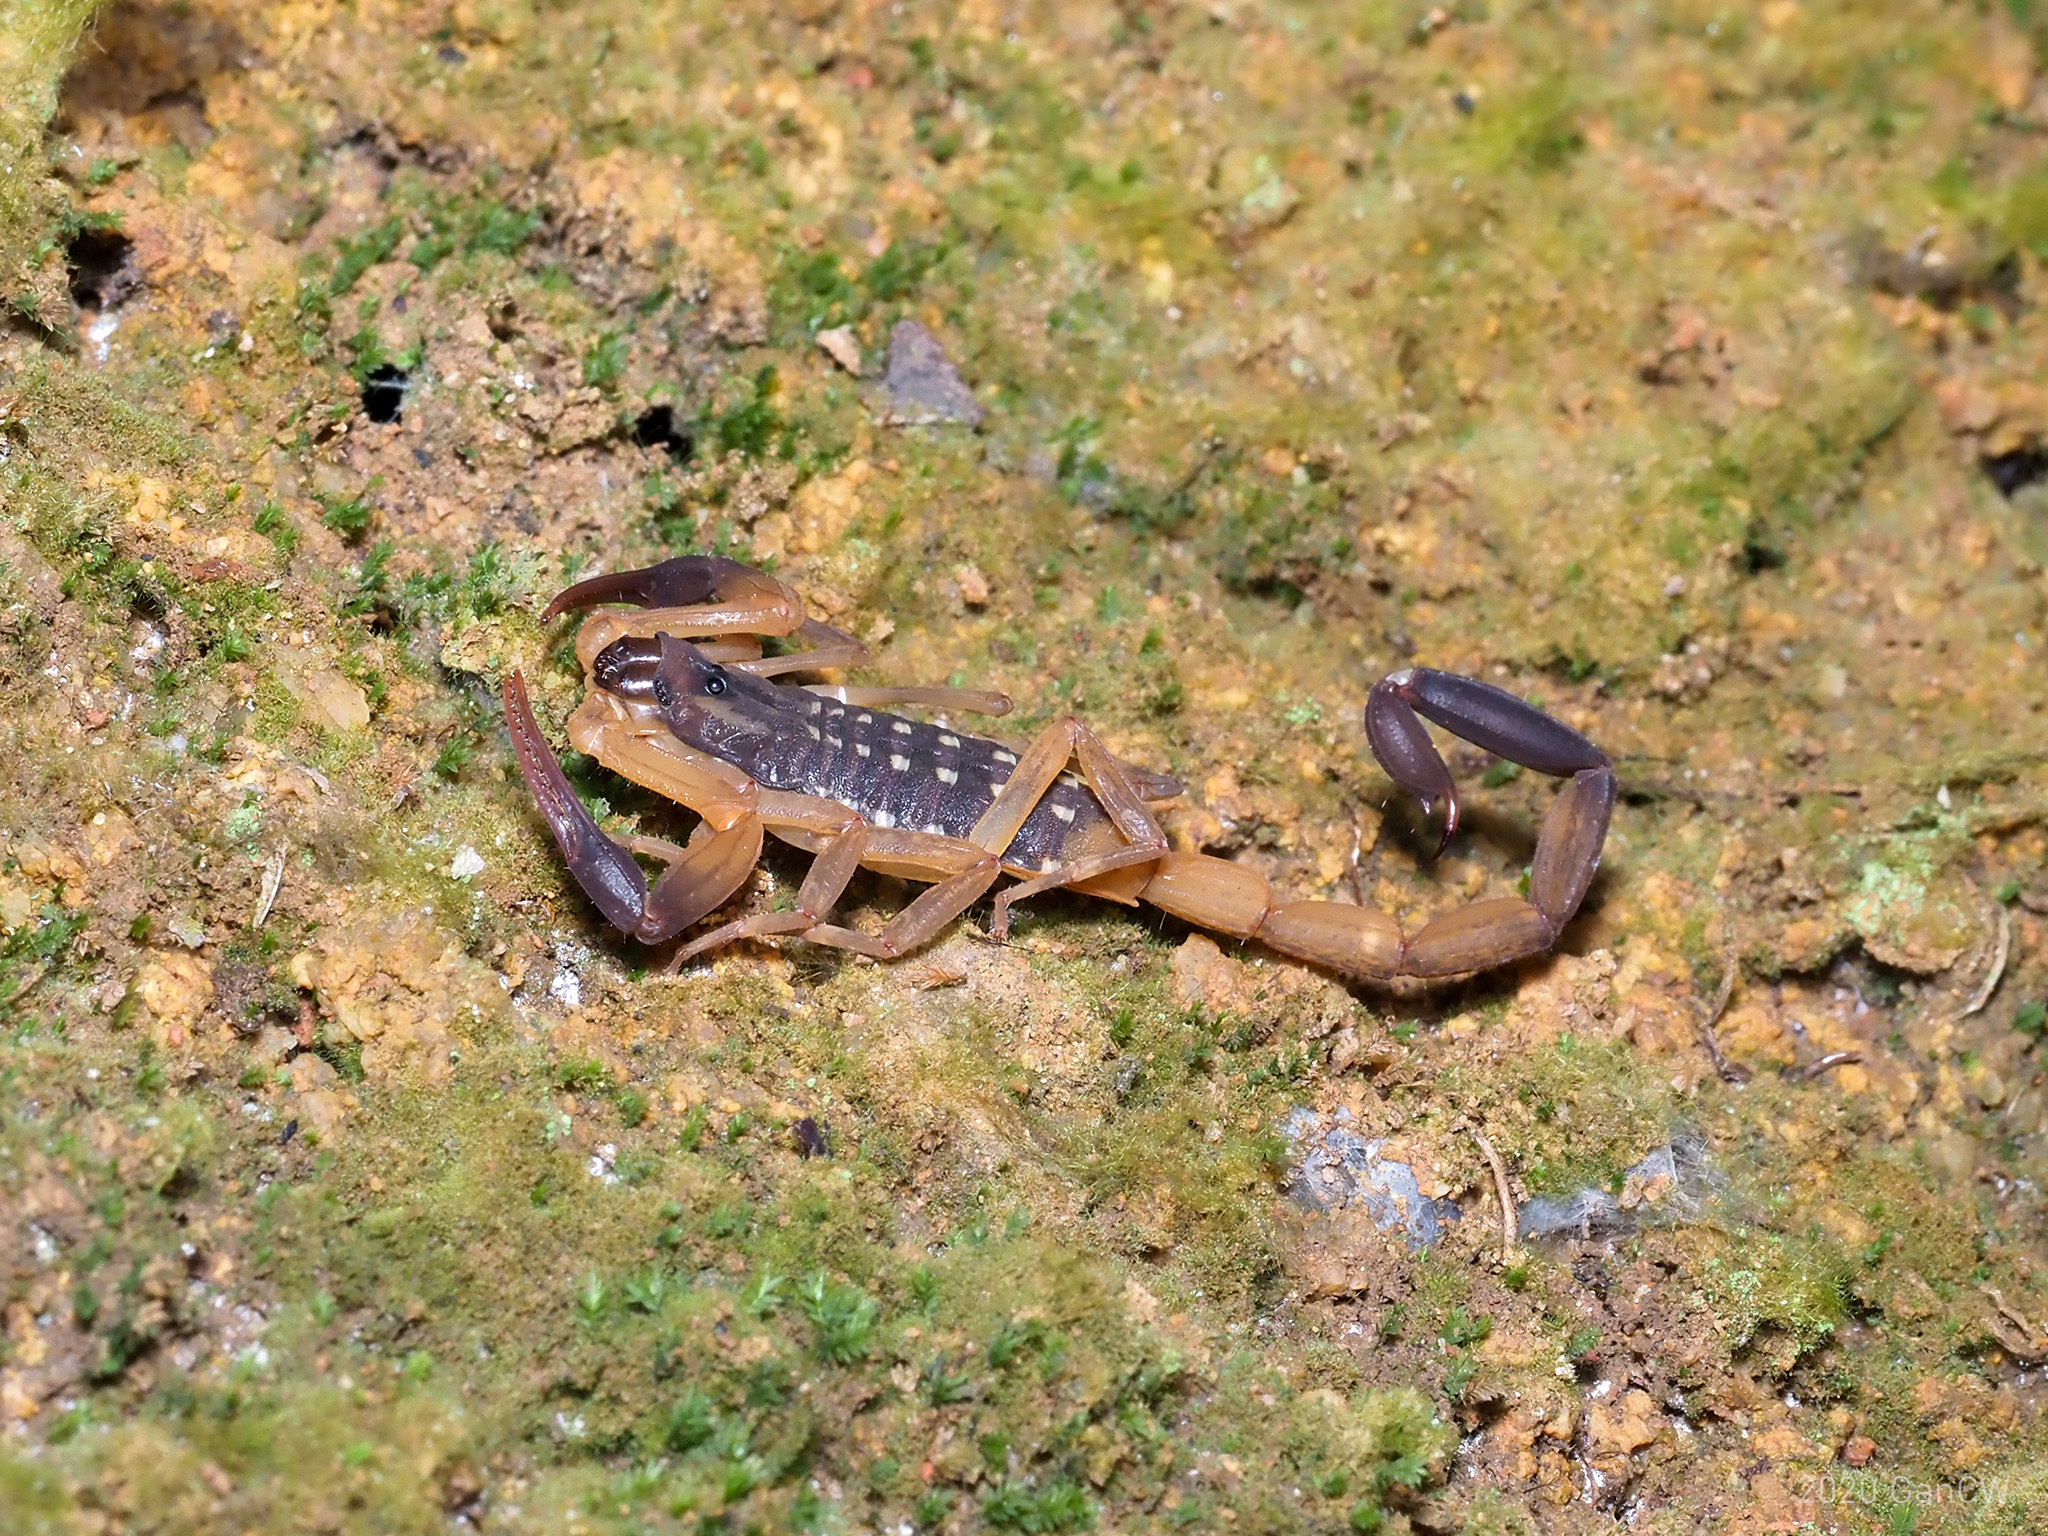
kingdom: Animalia
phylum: Arthropoda
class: Arachnida
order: Scorpiones
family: Buthidae
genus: Lychas
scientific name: Lychas scutilus
